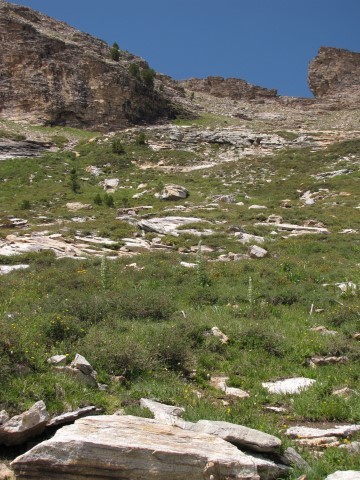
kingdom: Plantae
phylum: Tracheophyta
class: Magnoliopsida
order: Gentianales
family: Gentianaceae
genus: Frasera
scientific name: Frasera speciosa
